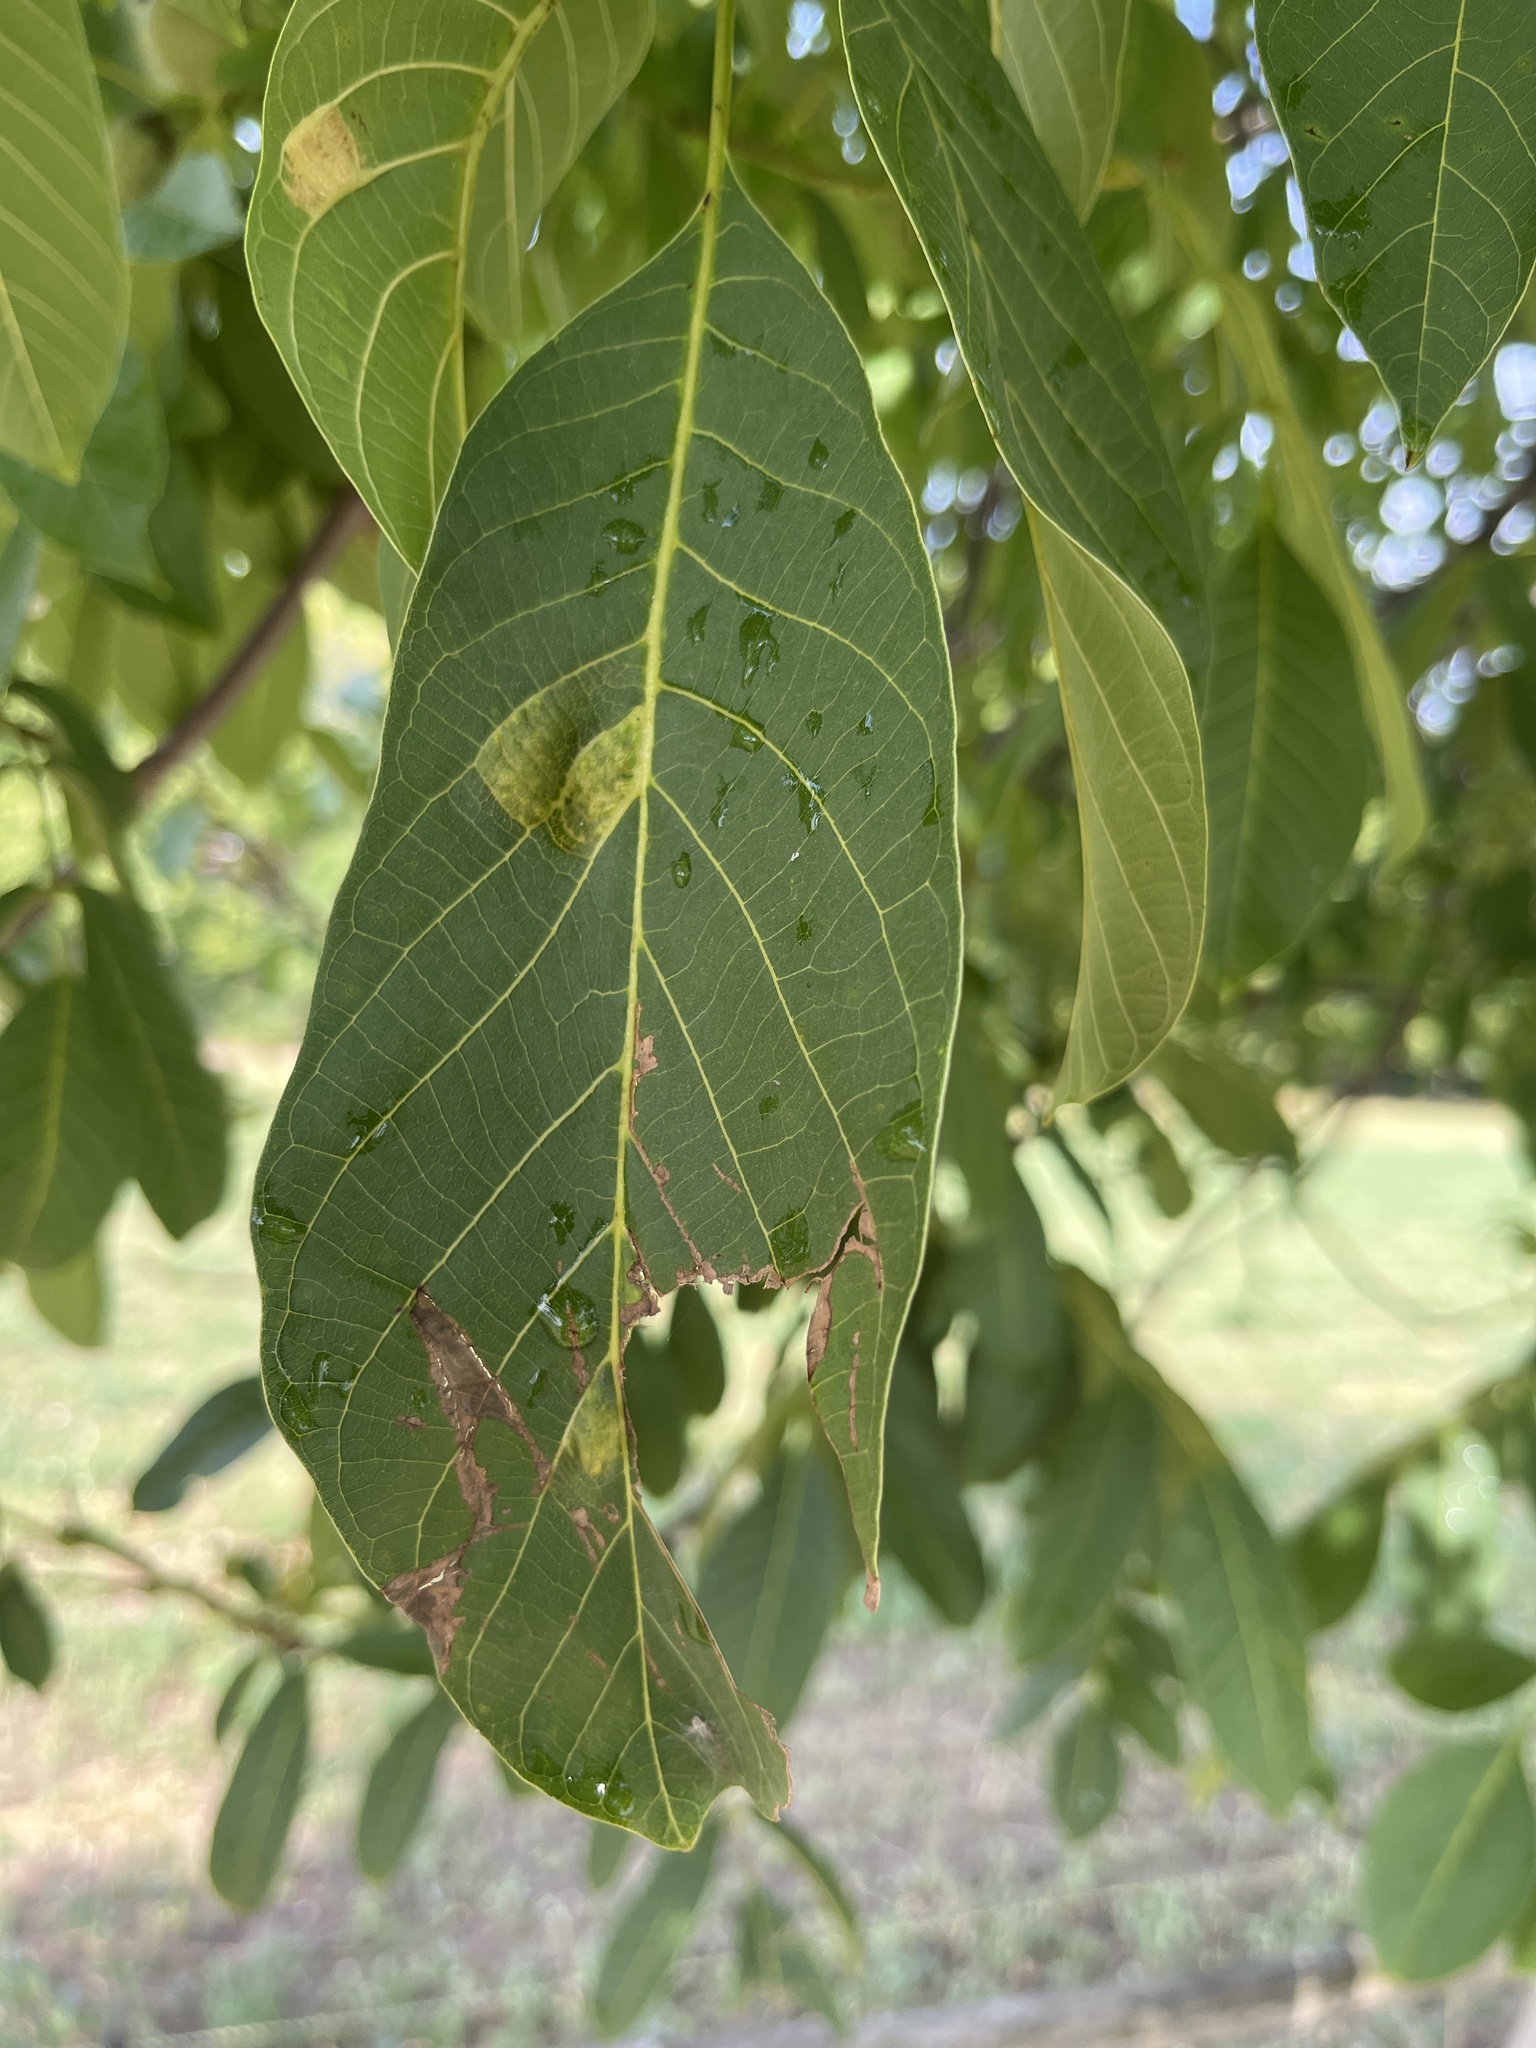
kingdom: Animalia
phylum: Arthropoda
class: Arachnida
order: Trombidiformes
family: Eriophyidae
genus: Aceria
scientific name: Aceria erinea
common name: Persian walnut erineum mite
